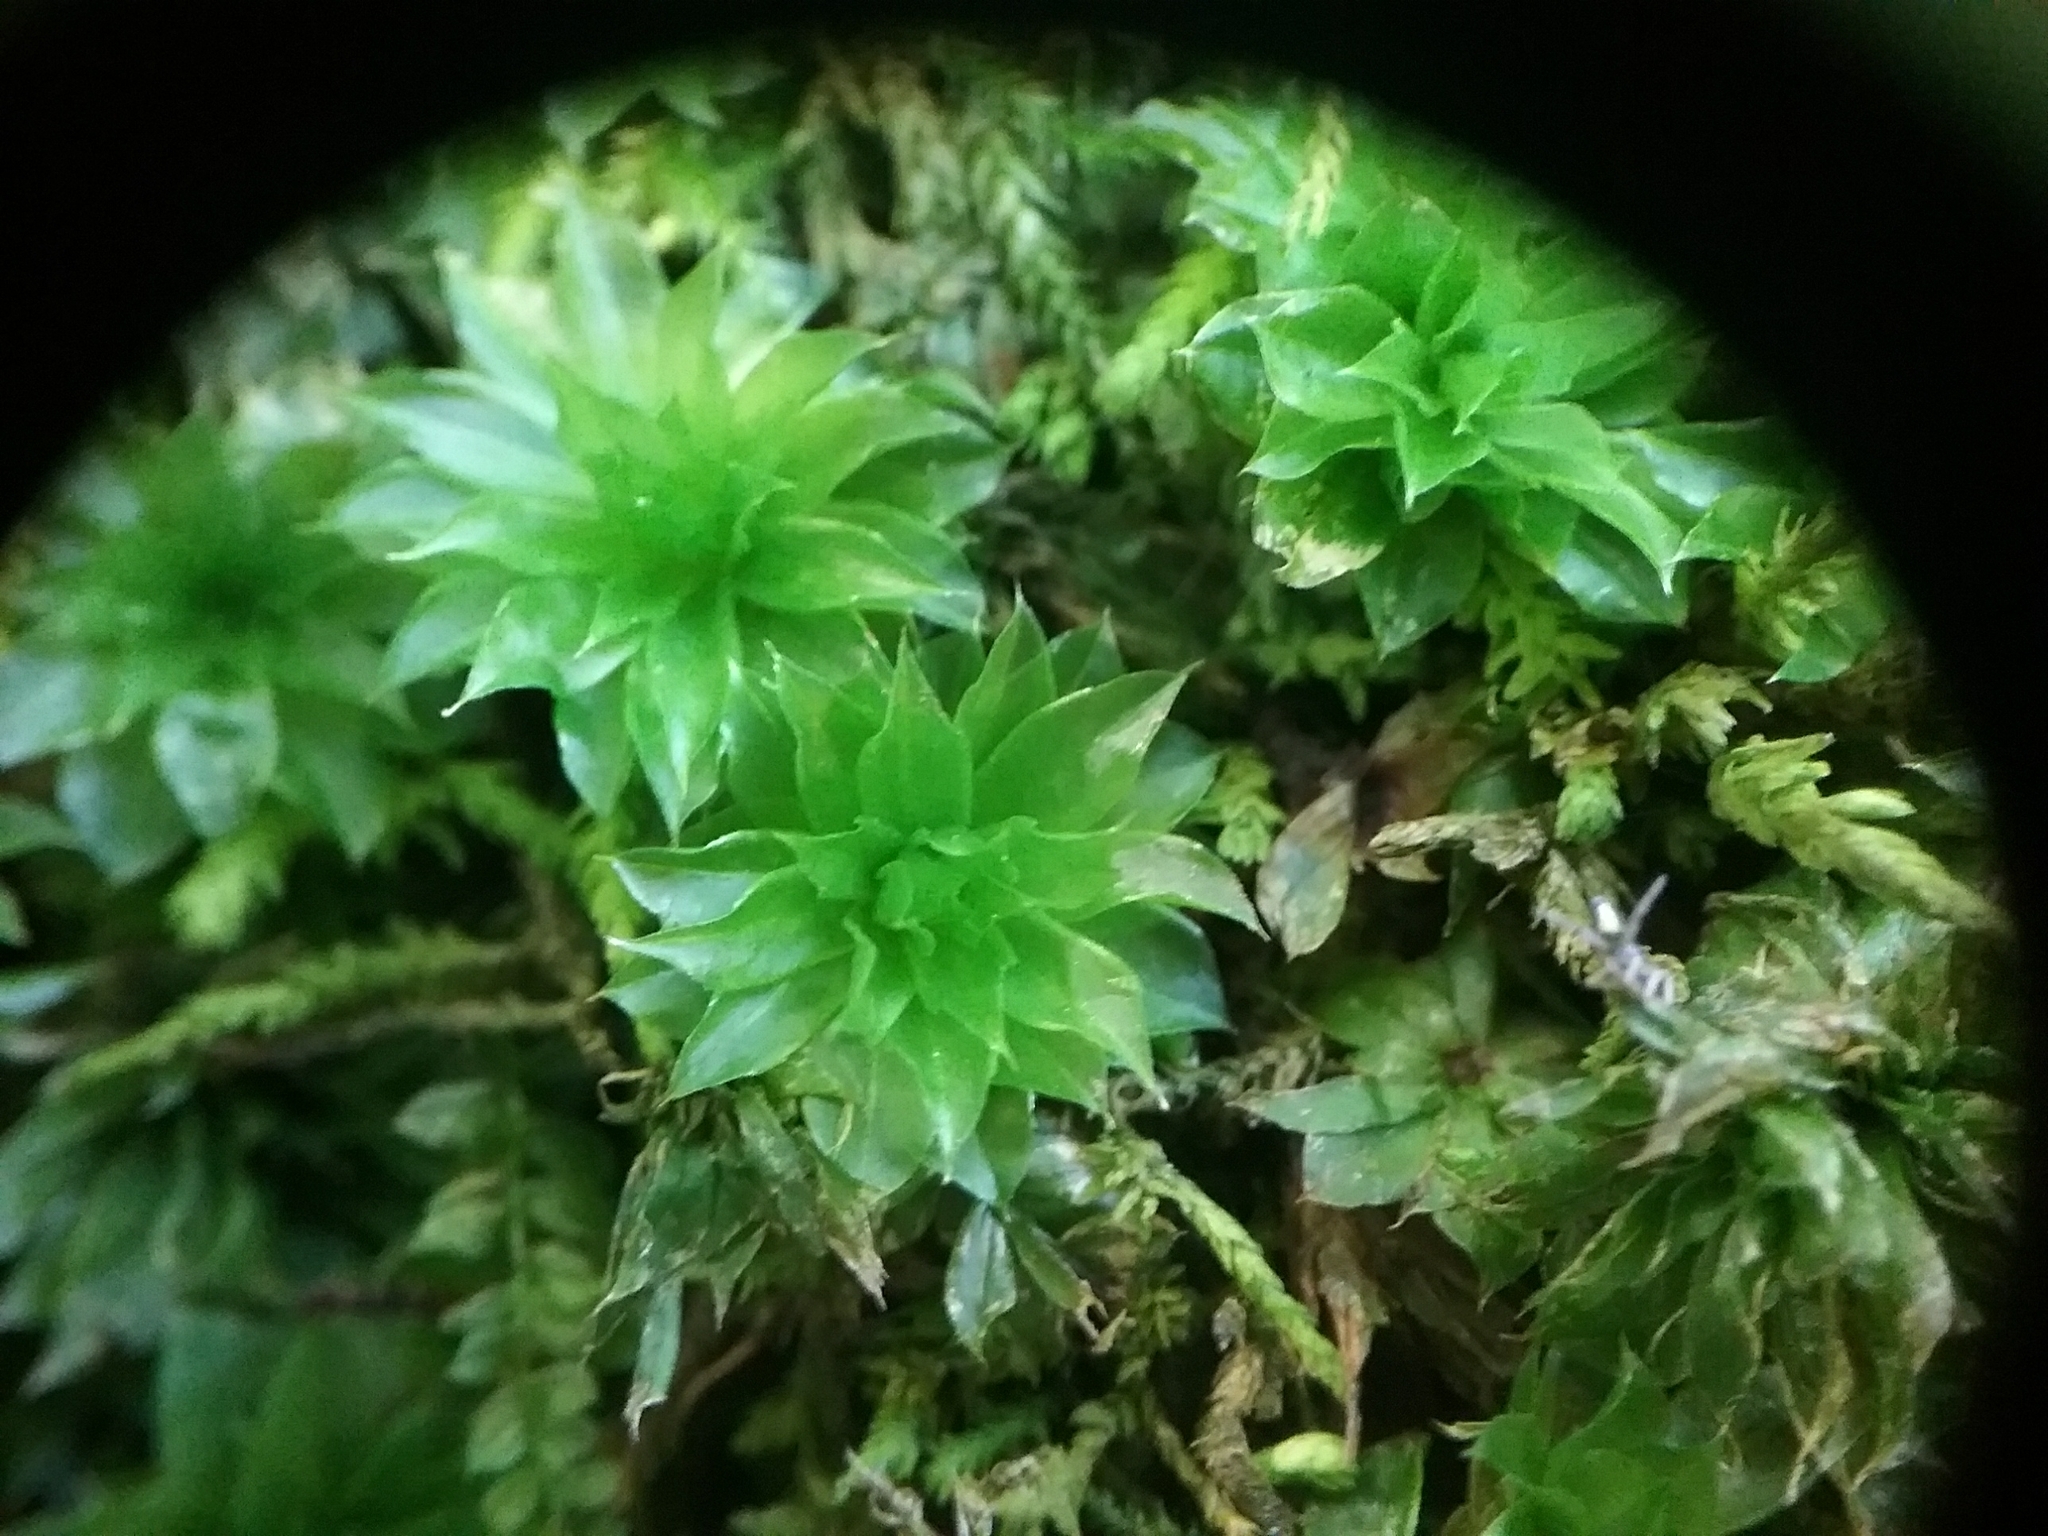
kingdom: Plantae
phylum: Bryophyta
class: Bryopsida
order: Bryales
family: Bryaceae
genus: Rhodobryum
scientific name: Rhodobryum ontariense
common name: Ontario rhodobryum moss
